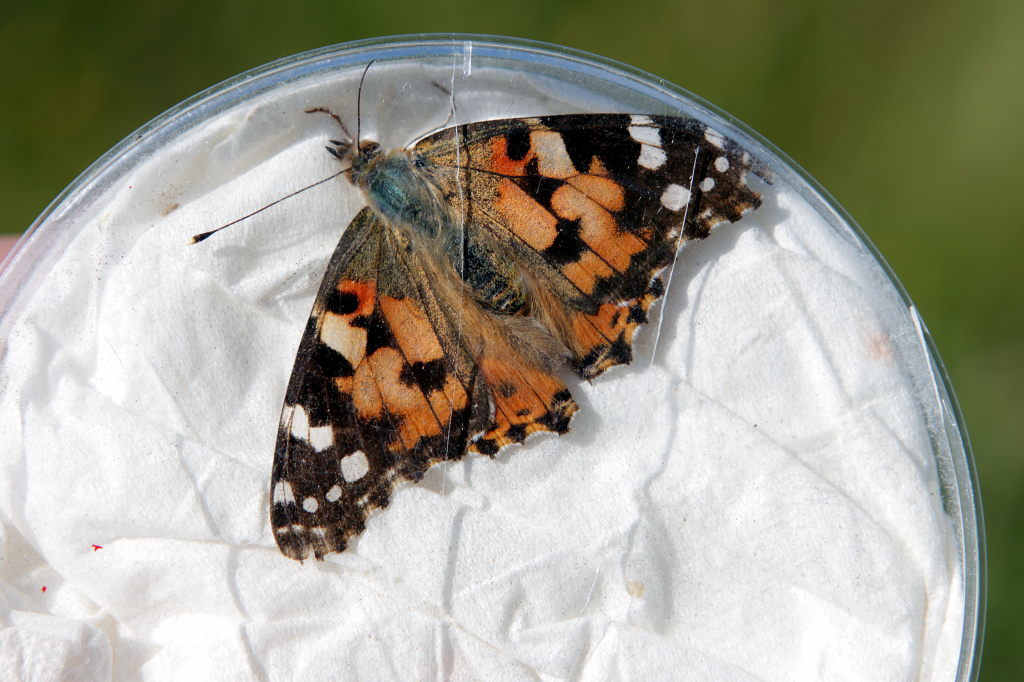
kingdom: Animalia
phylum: Arthropoda
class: Insecta
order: Lepidoptera
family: Nymphalidae
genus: Vanessa
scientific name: Vanessa cardui
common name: Painted lady
